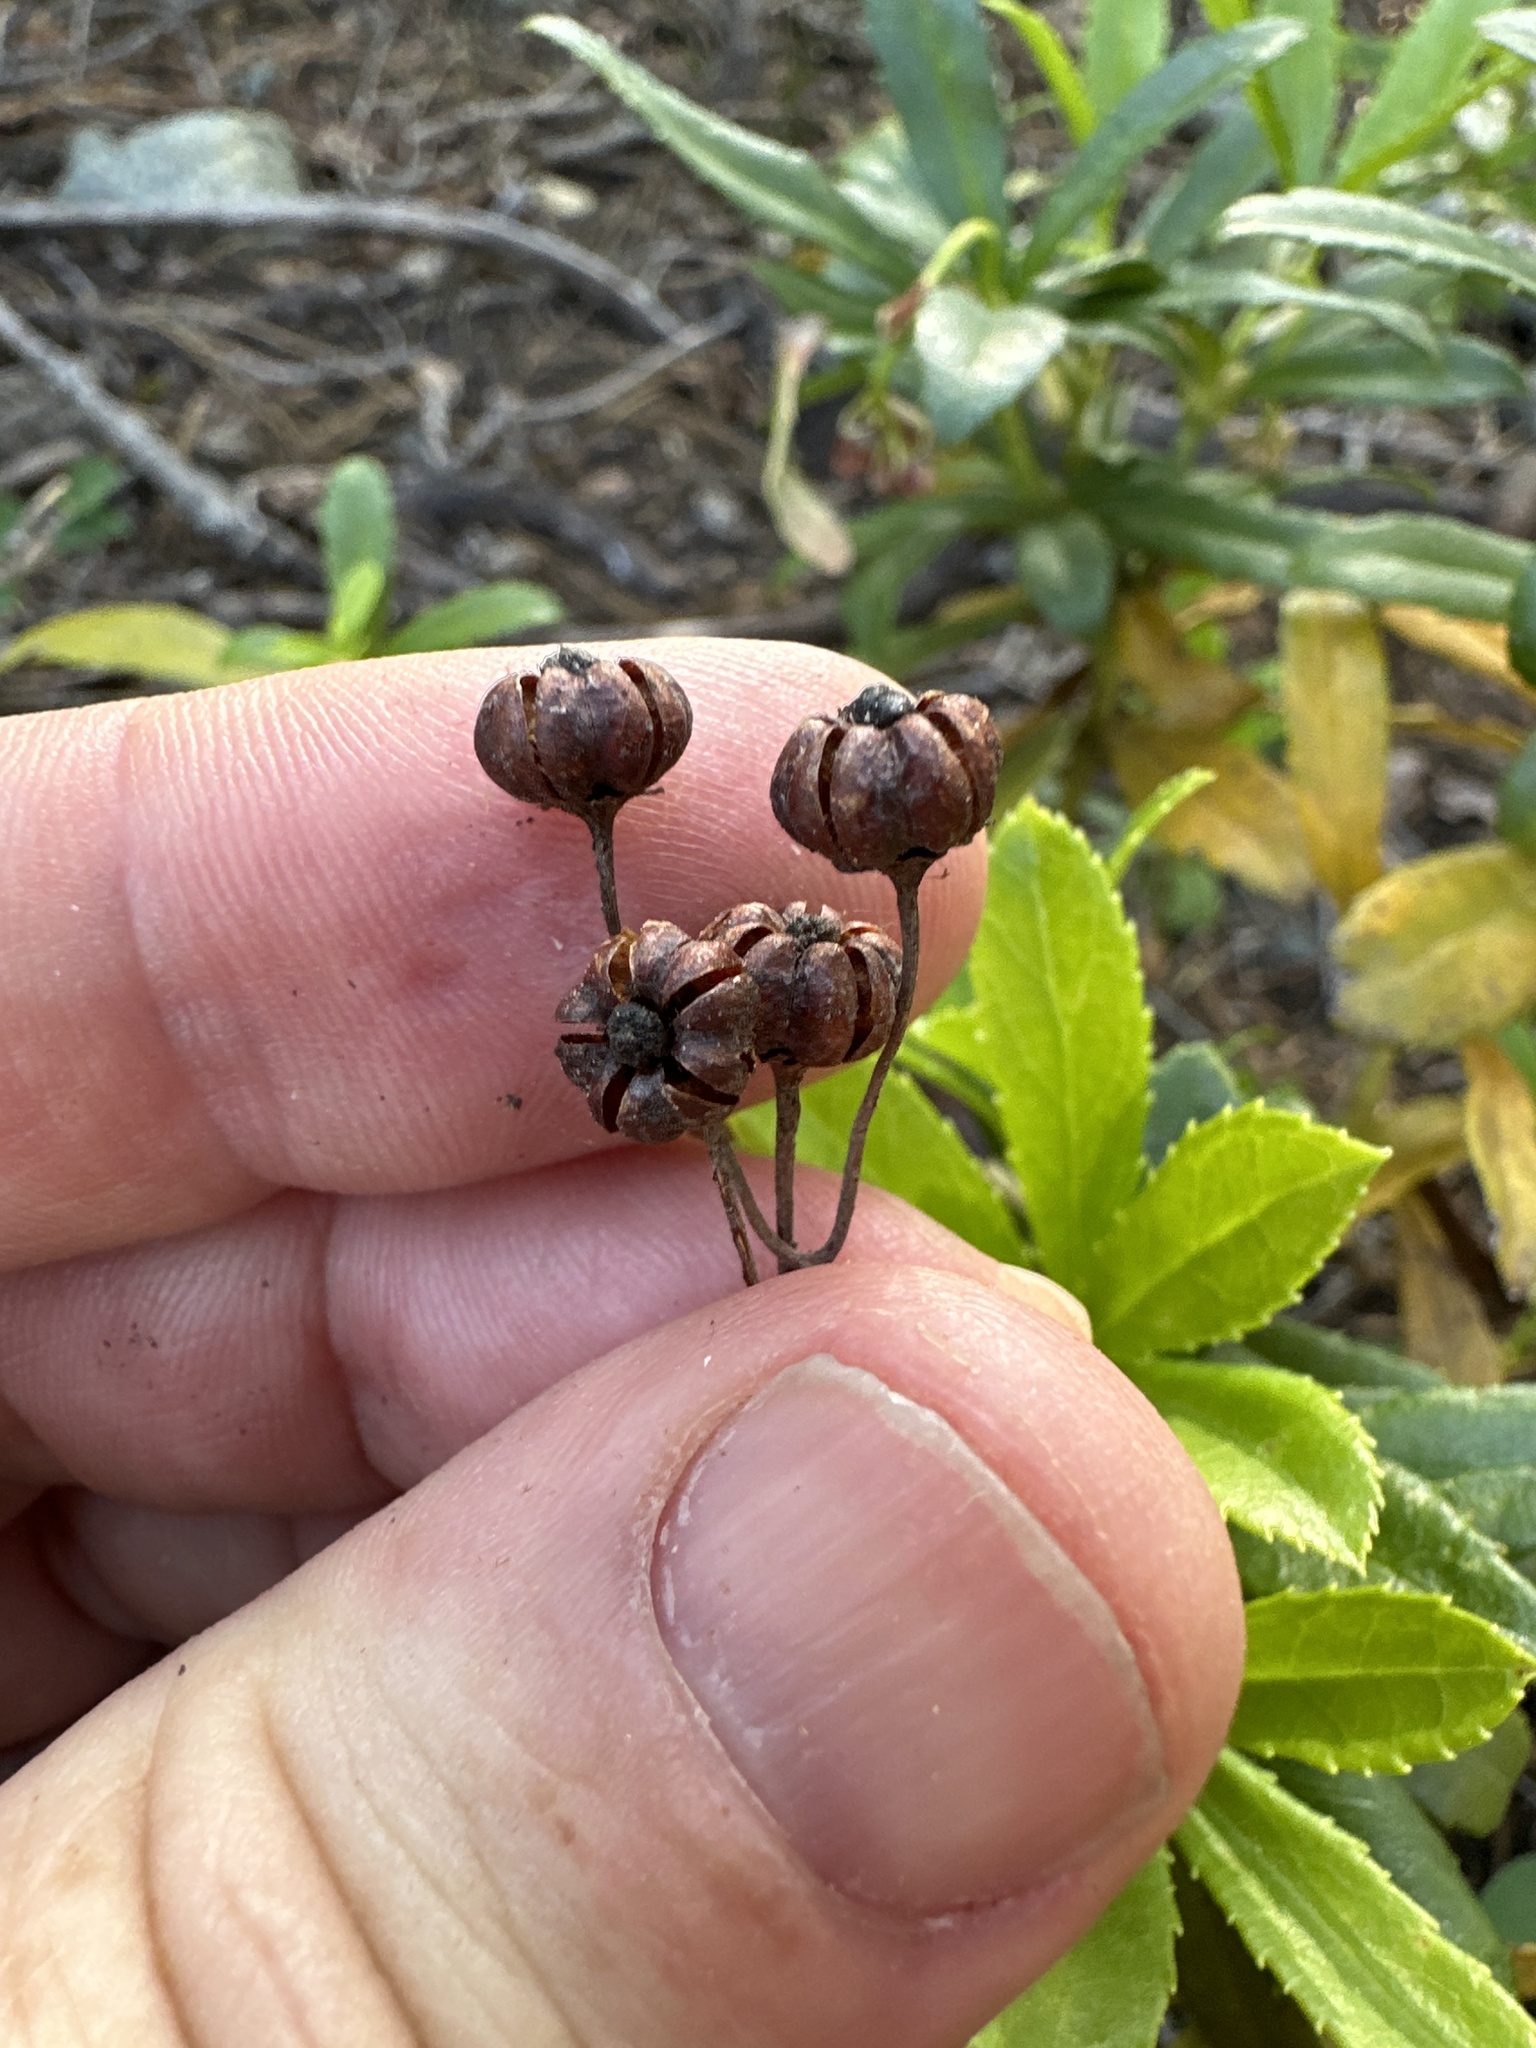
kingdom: Plantae
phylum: Tracheophyta
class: Magnoliopsida
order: Ericales
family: Ericaceae
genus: Chimaphila
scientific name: Chimaphila umbellata
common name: Pipsissewa
